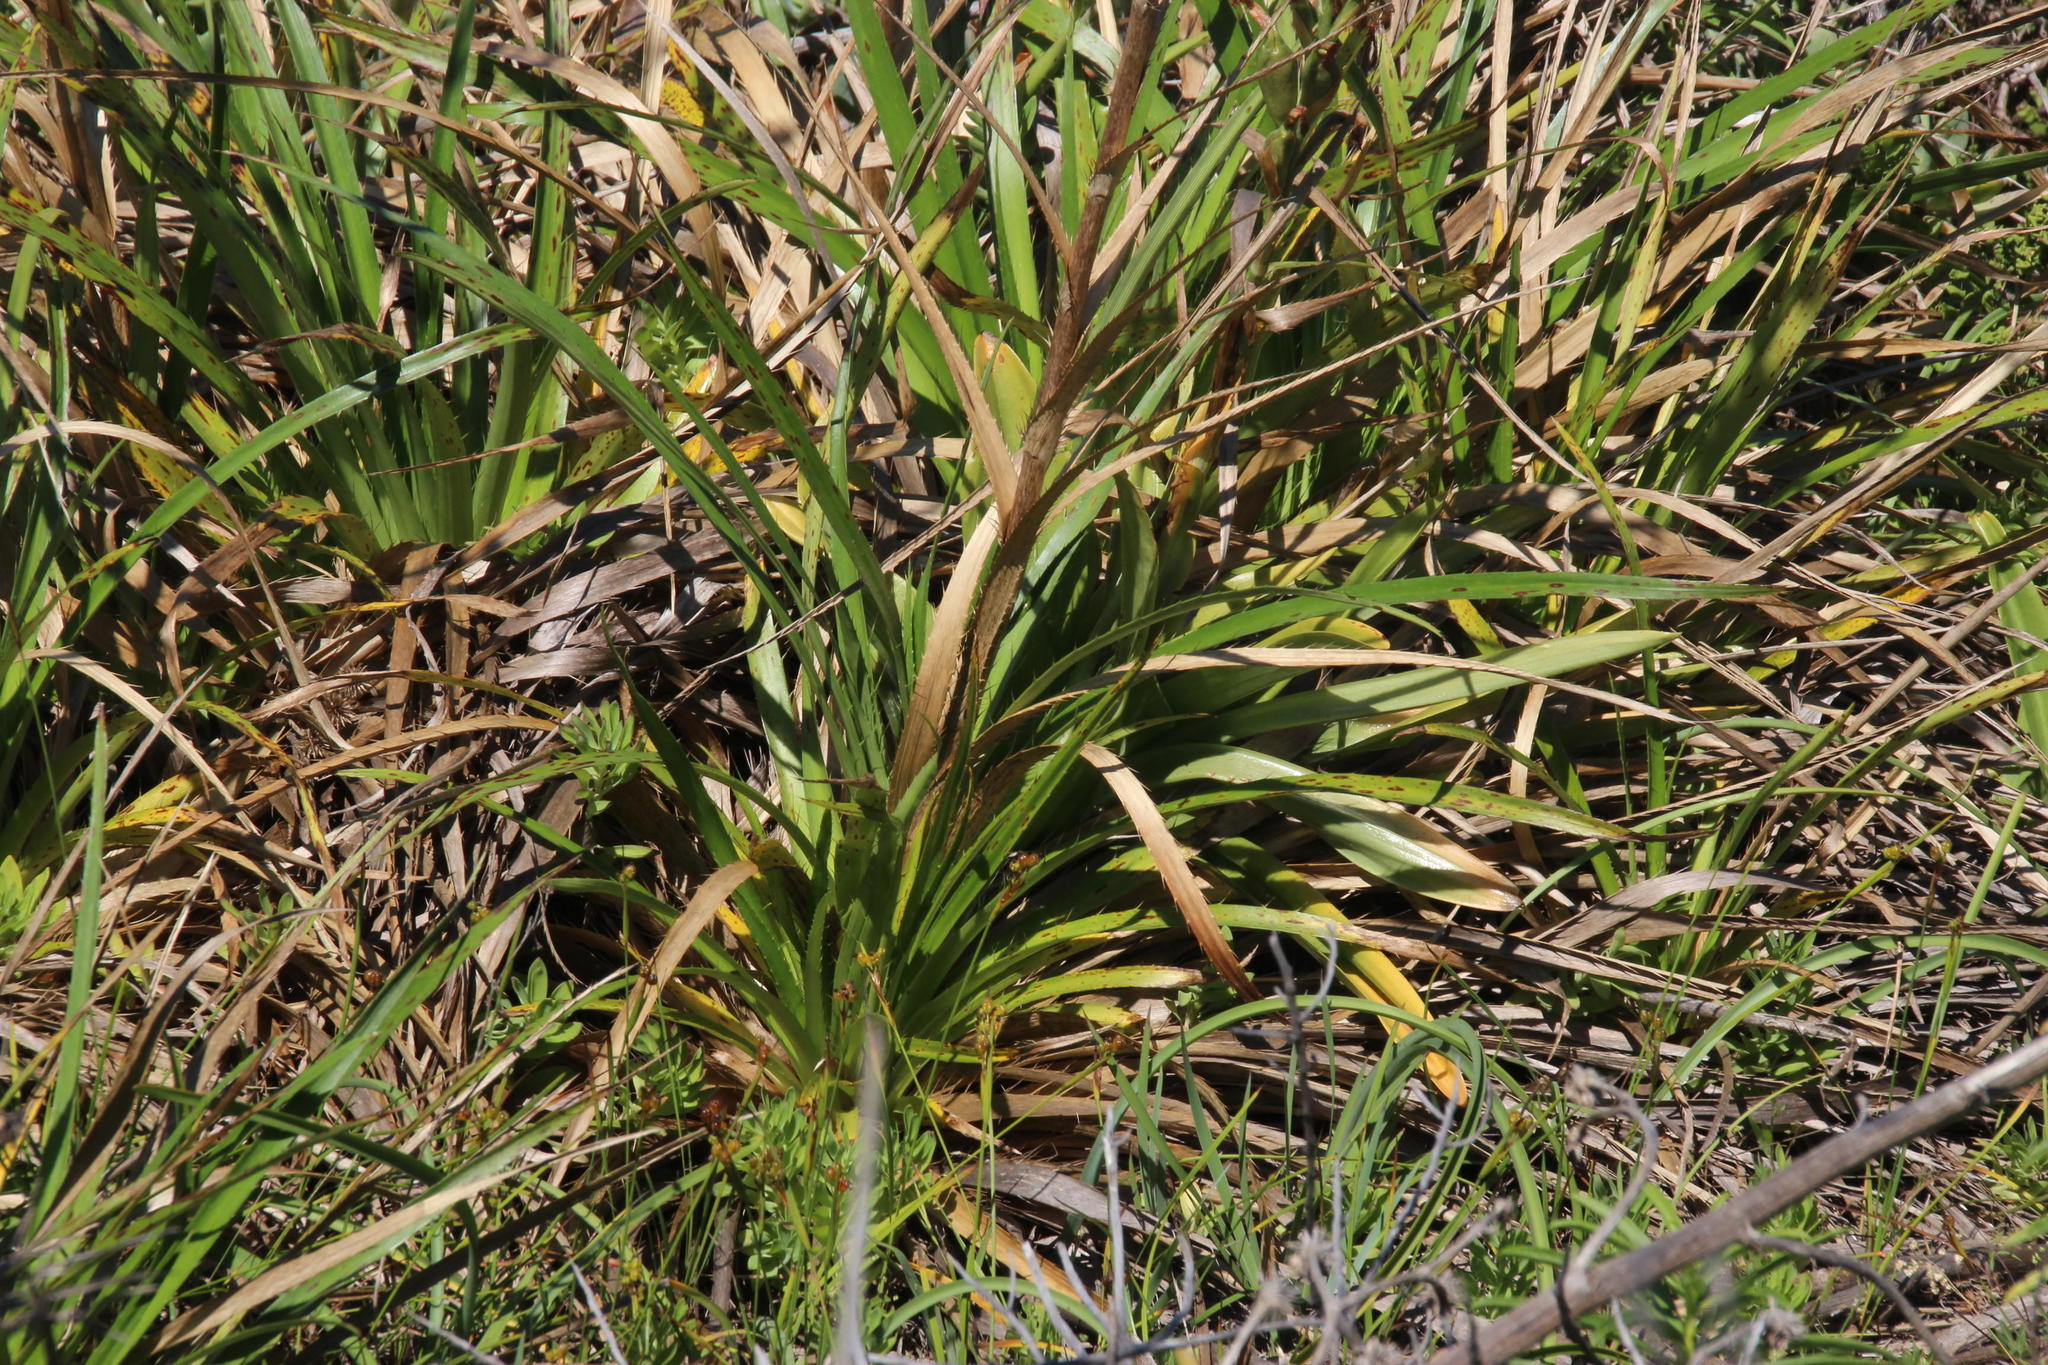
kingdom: Plantae
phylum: Tracheophyta
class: Magnoliopsida
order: Apiales
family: Apiaceae
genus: Eryngium
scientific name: Eryngium humboldtii
